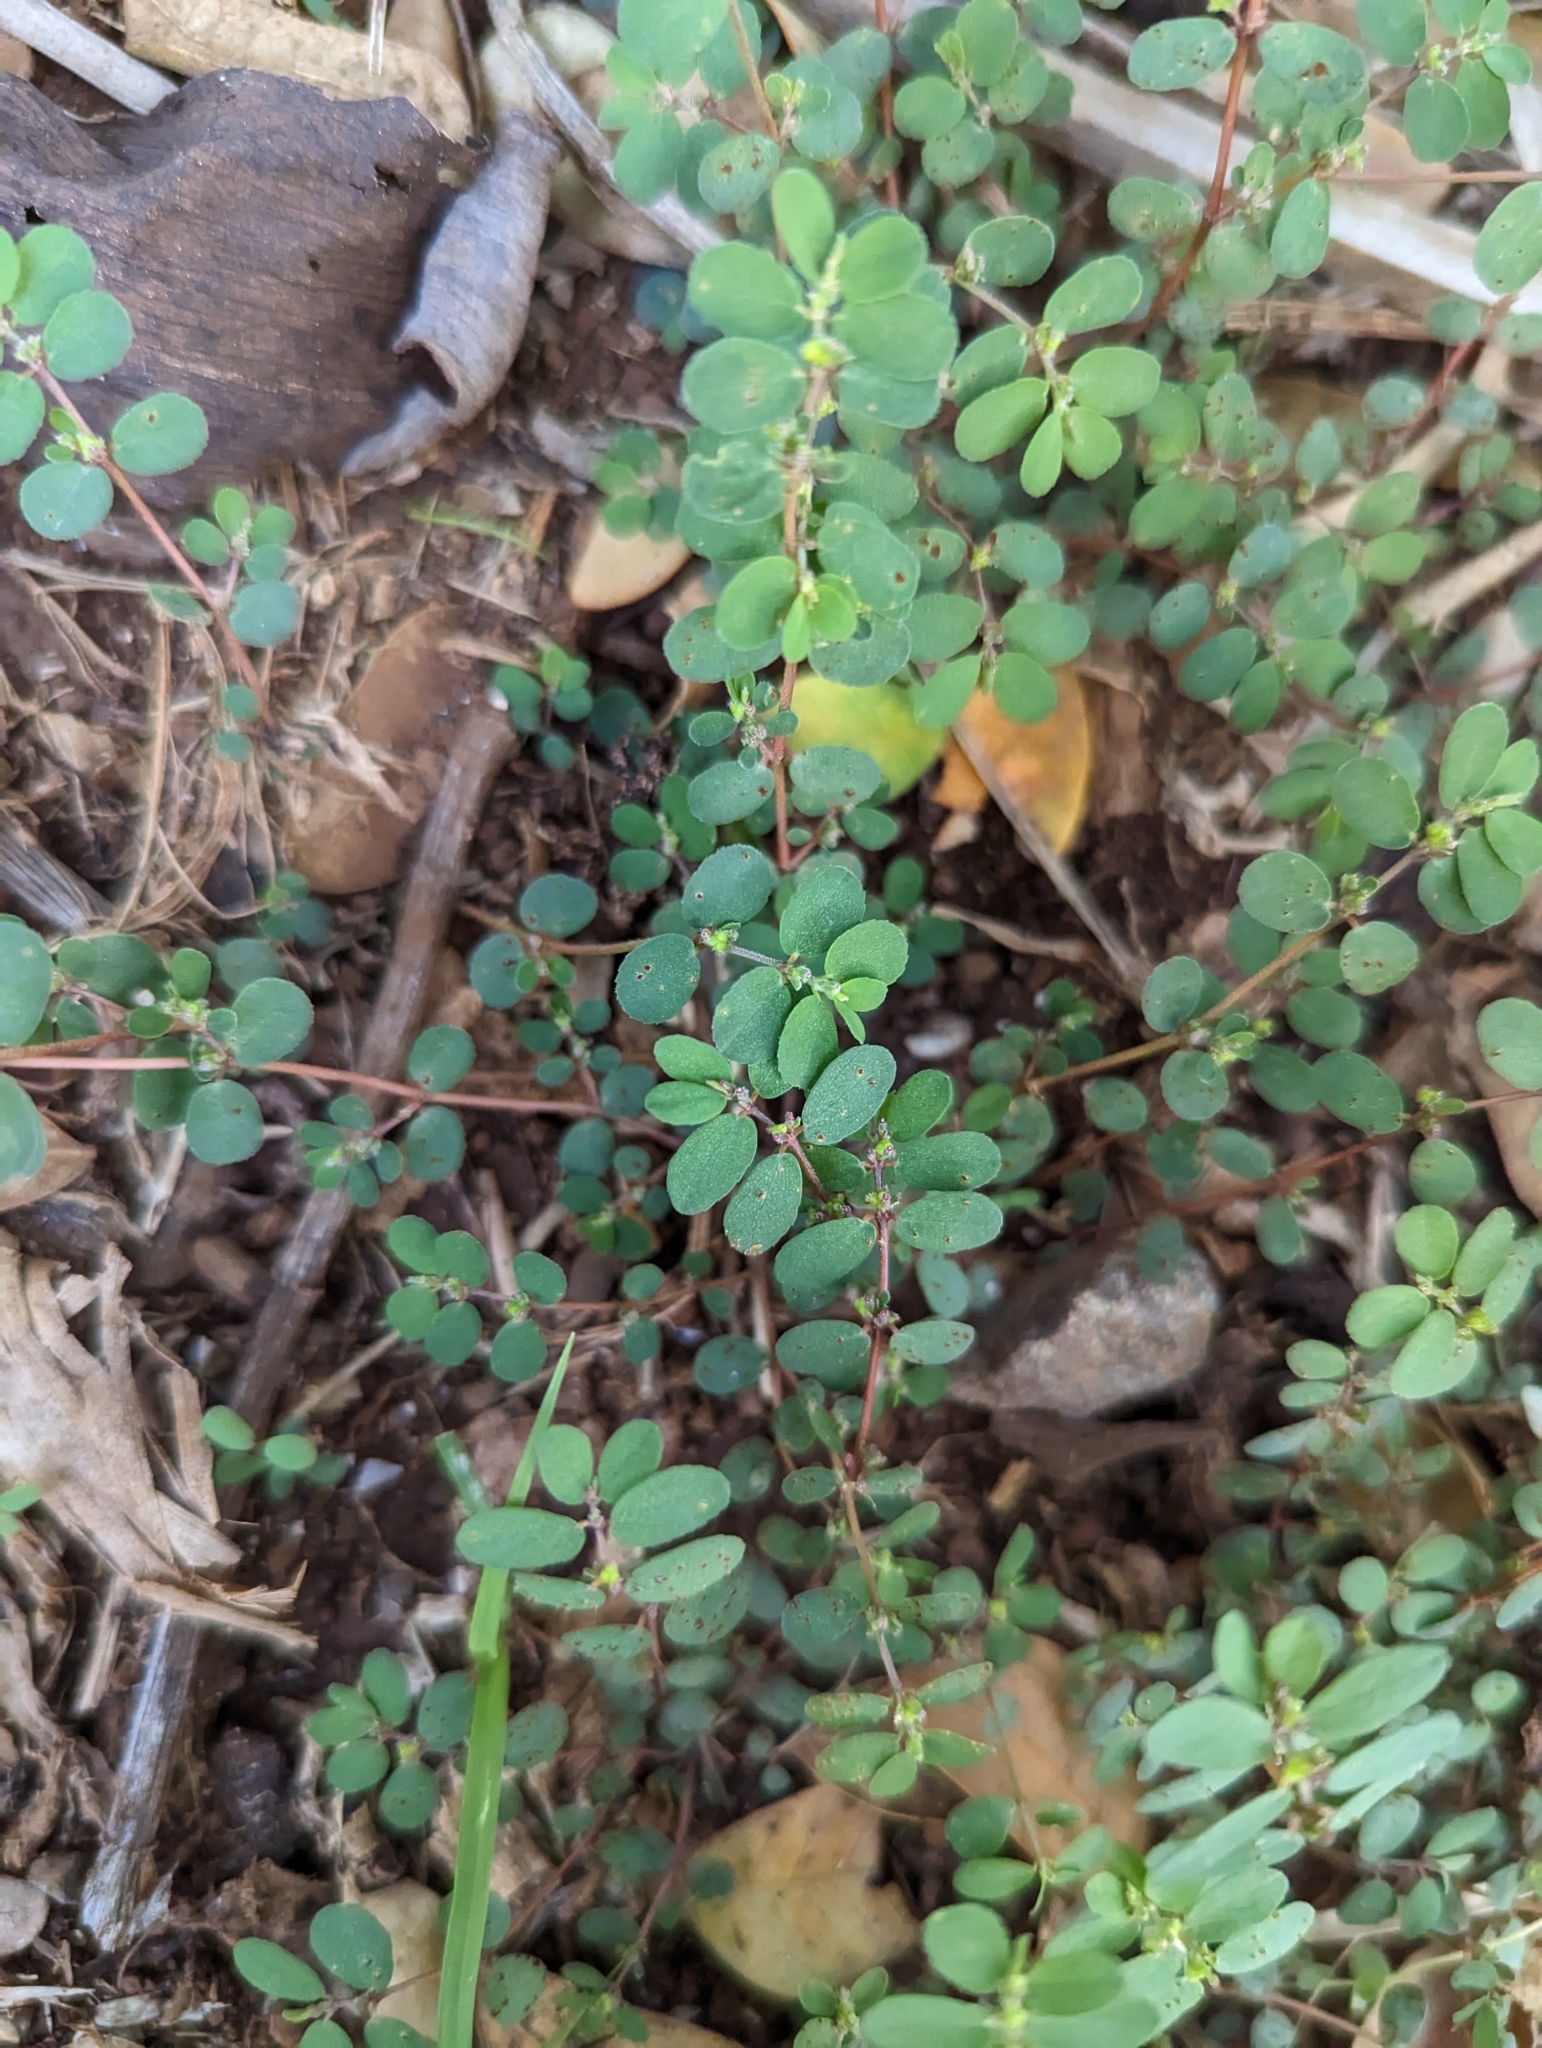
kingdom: Plantae
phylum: Tracheophyta
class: Magnoliopsida
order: Malpighiales
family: Euphorbiaceae
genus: Euphorbia
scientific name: Euphorbia prostrata
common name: Prostrate sandmat
